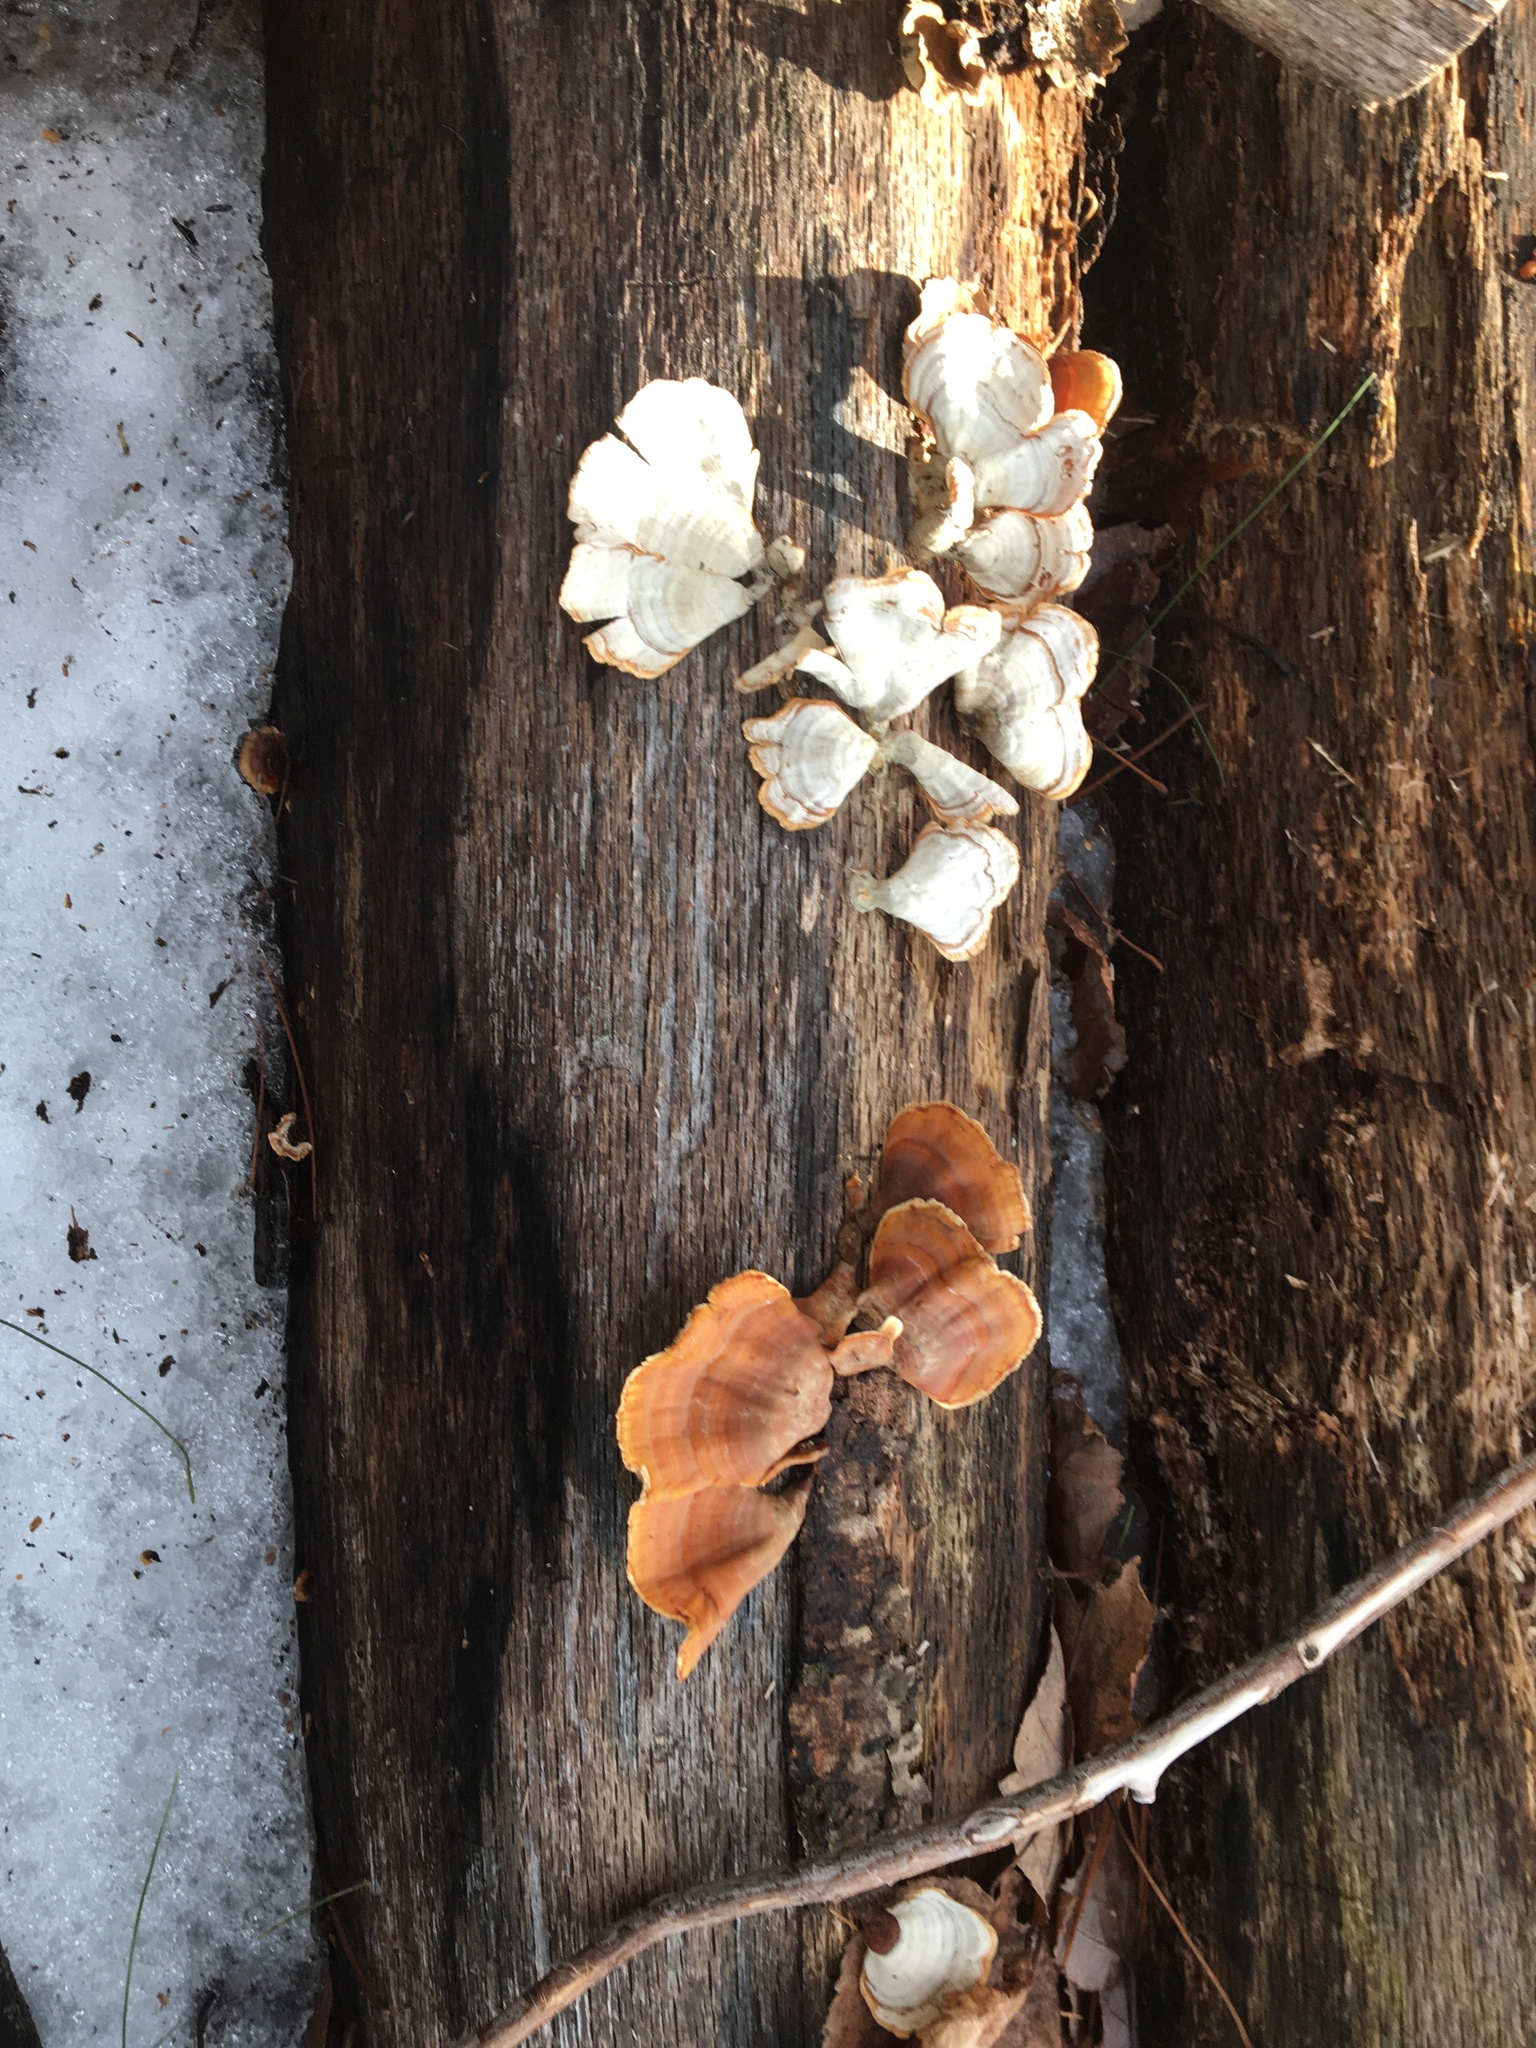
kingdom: Fungi
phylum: Basidiomycota
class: Agaricomycetes
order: Russulales
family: Stereaceae
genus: Stereum
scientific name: Stereum lobatum
